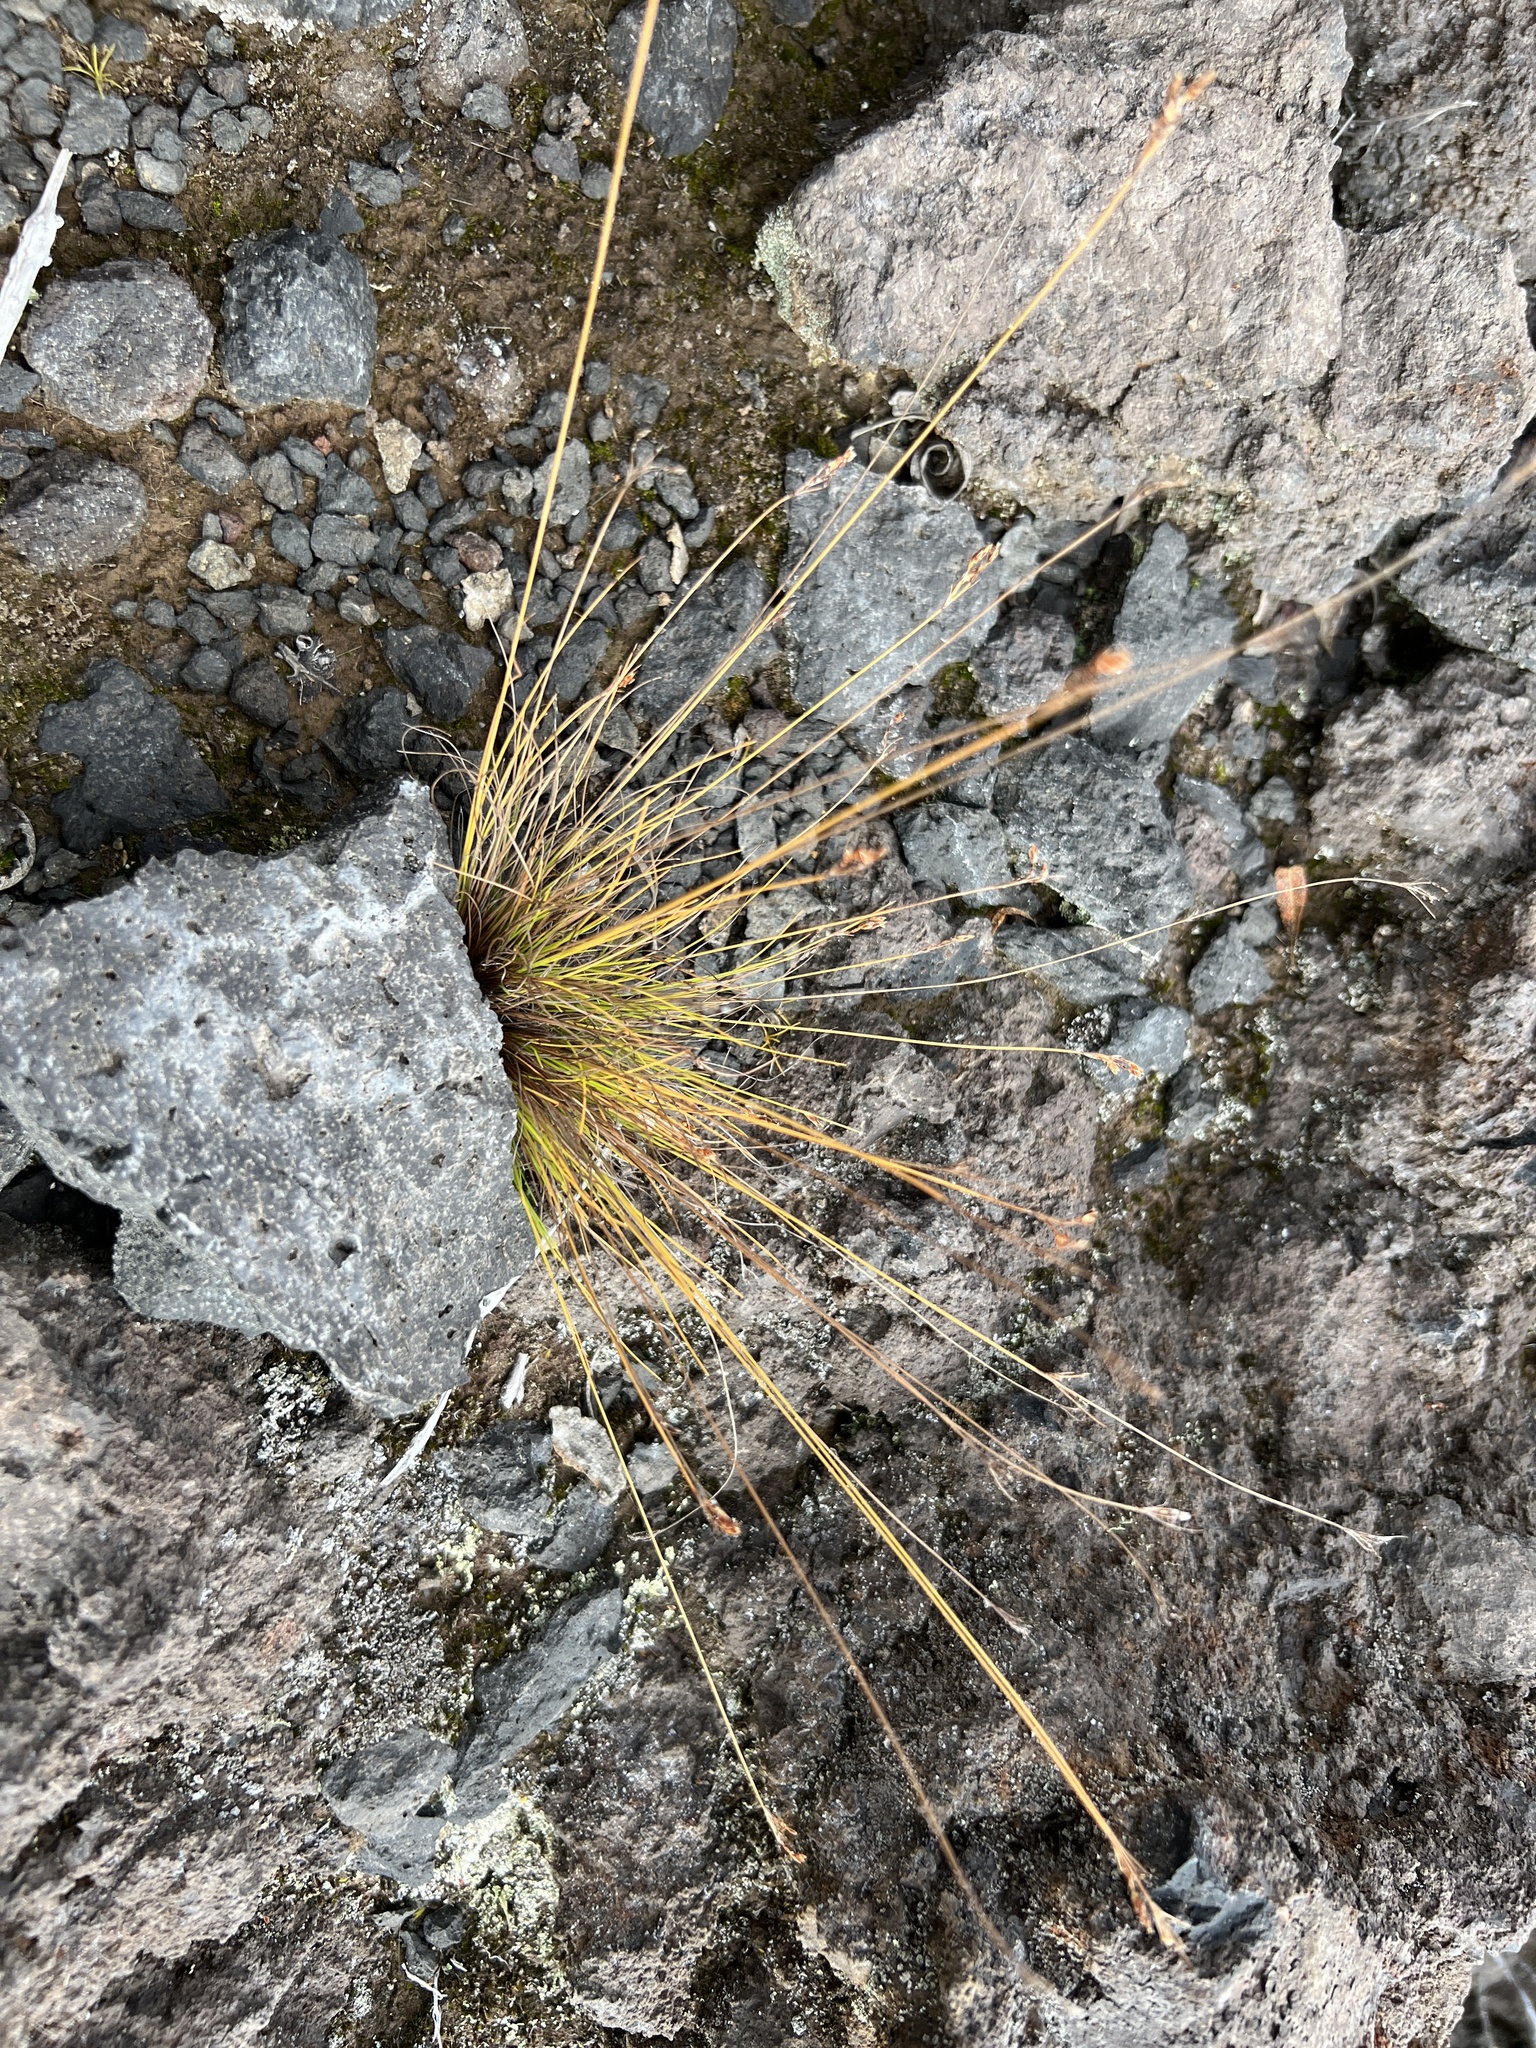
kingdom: Plantae
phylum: Tracheophyta
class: Liliopsida
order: Poales
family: Cyperaceae
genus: Bulbostylis
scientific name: Bulbostylis capillaris
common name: Densetuft hairsedge
